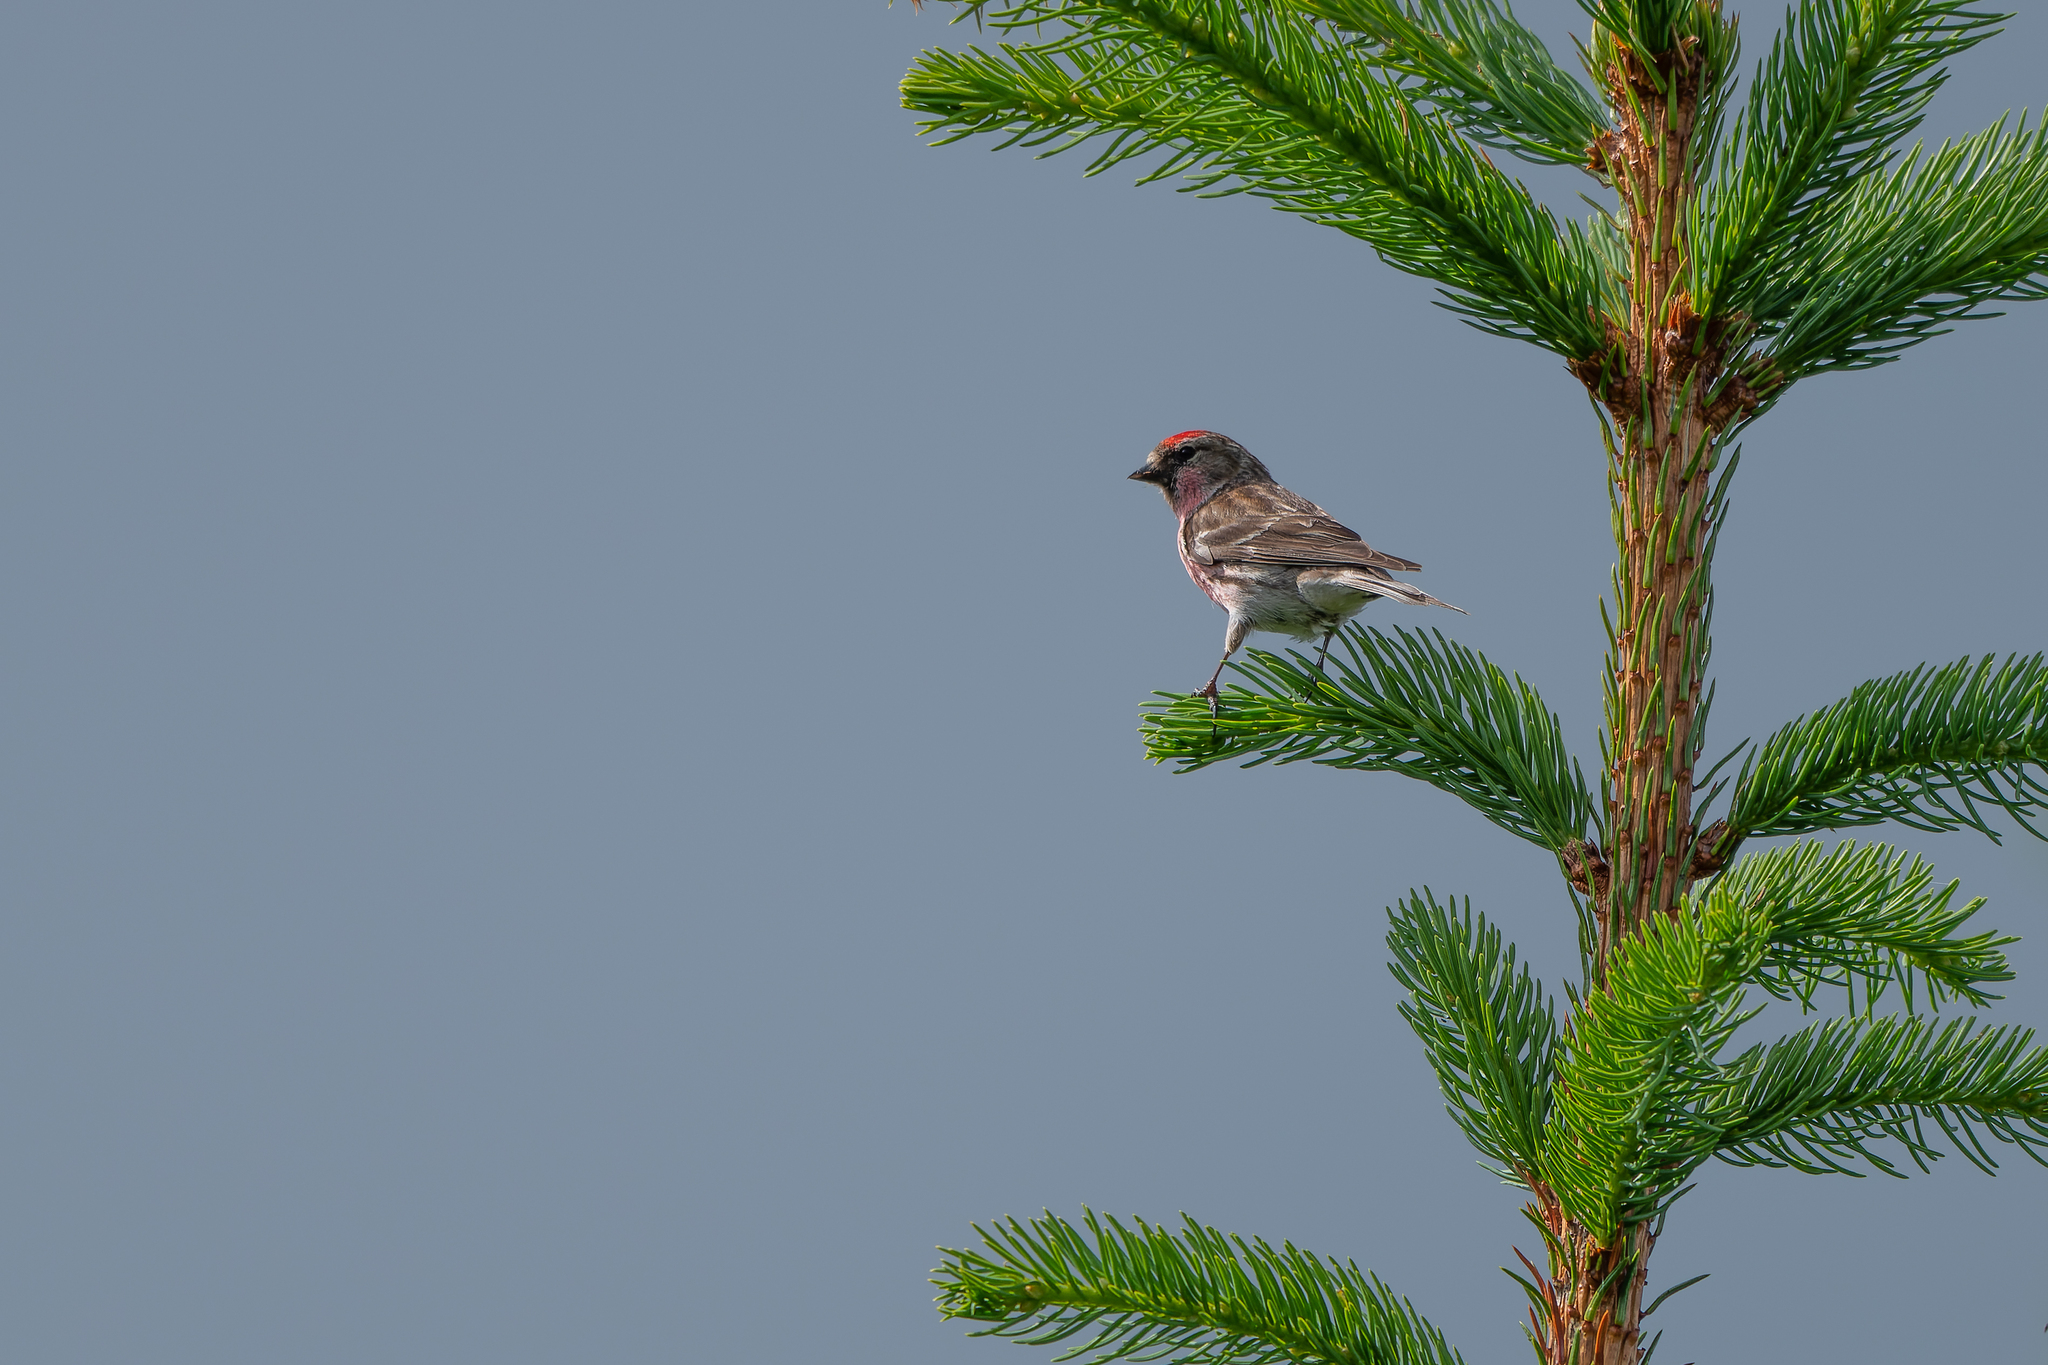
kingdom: Animalia
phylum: Chordata
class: Aves
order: Passeriformes
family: Fringillidae
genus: Acanthis
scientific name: Acanthis flammea
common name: Common redpoll
